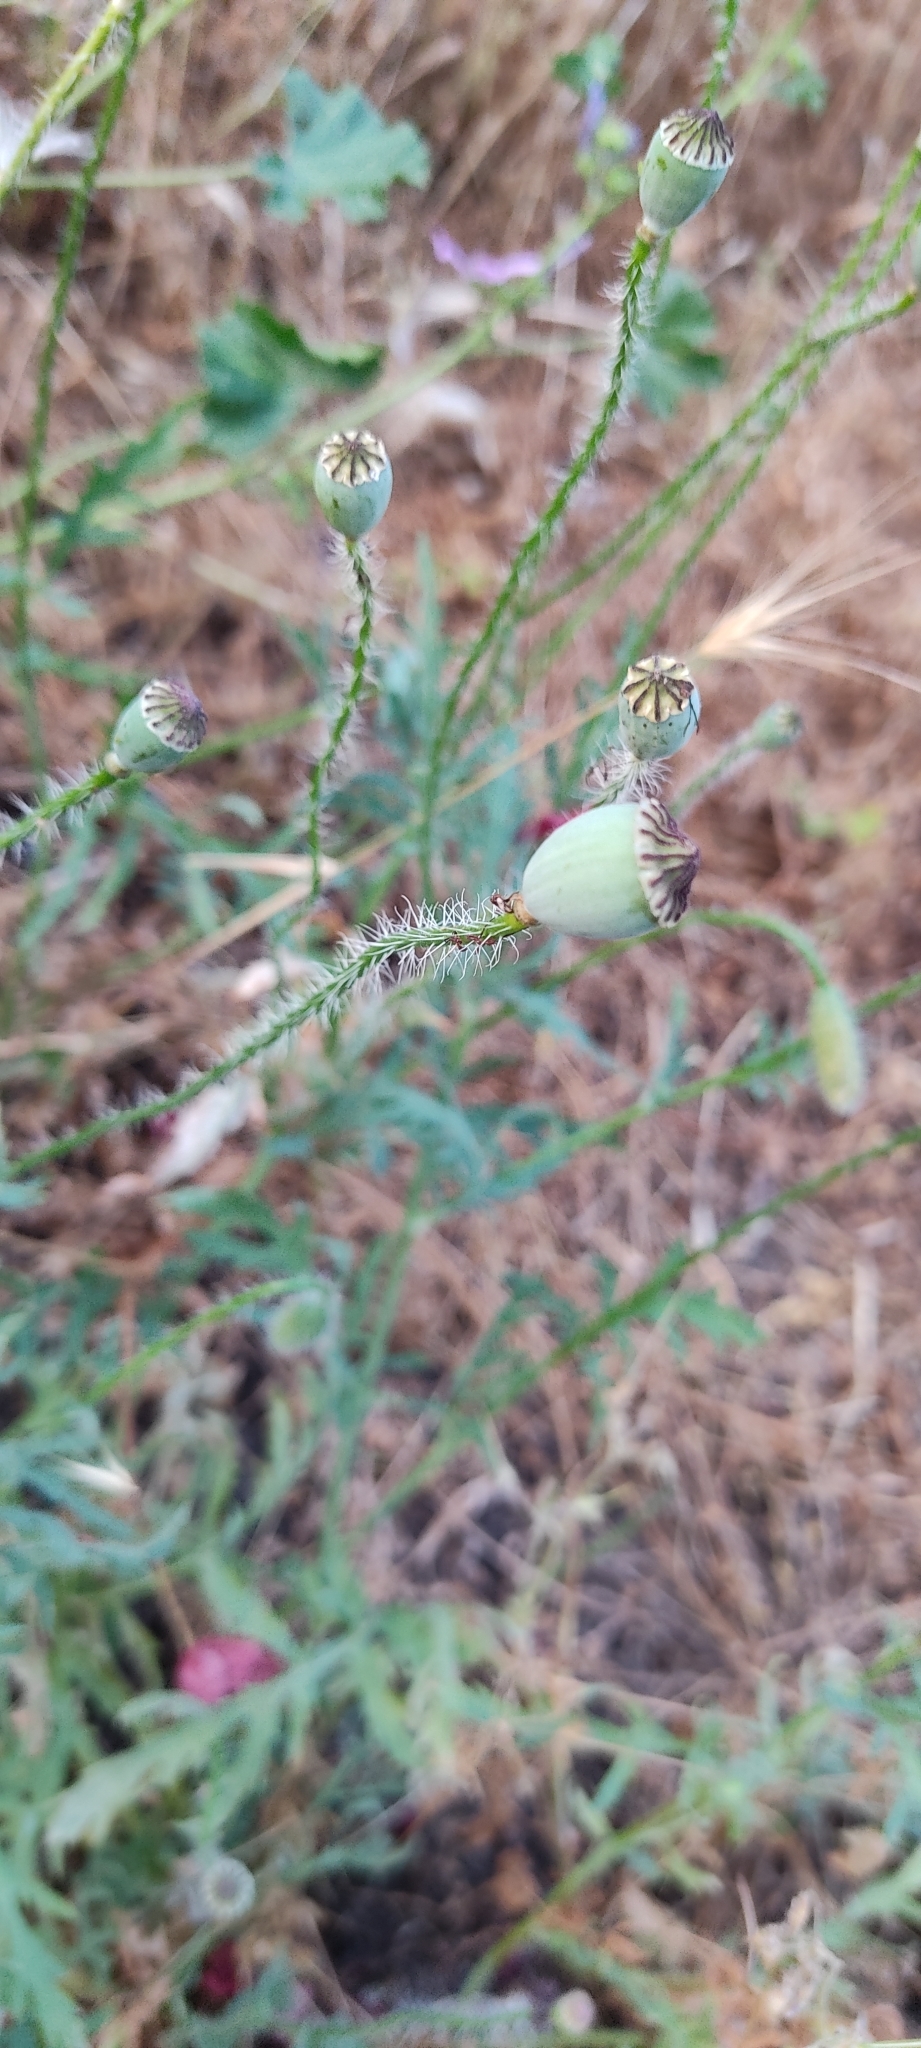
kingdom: Plantae
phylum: Tracheophyta
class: Magnoliopsida
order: Ranunculales
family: Papaveraceae
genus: Papaver
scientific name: Papaver rhoeas
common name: Corn poppy
